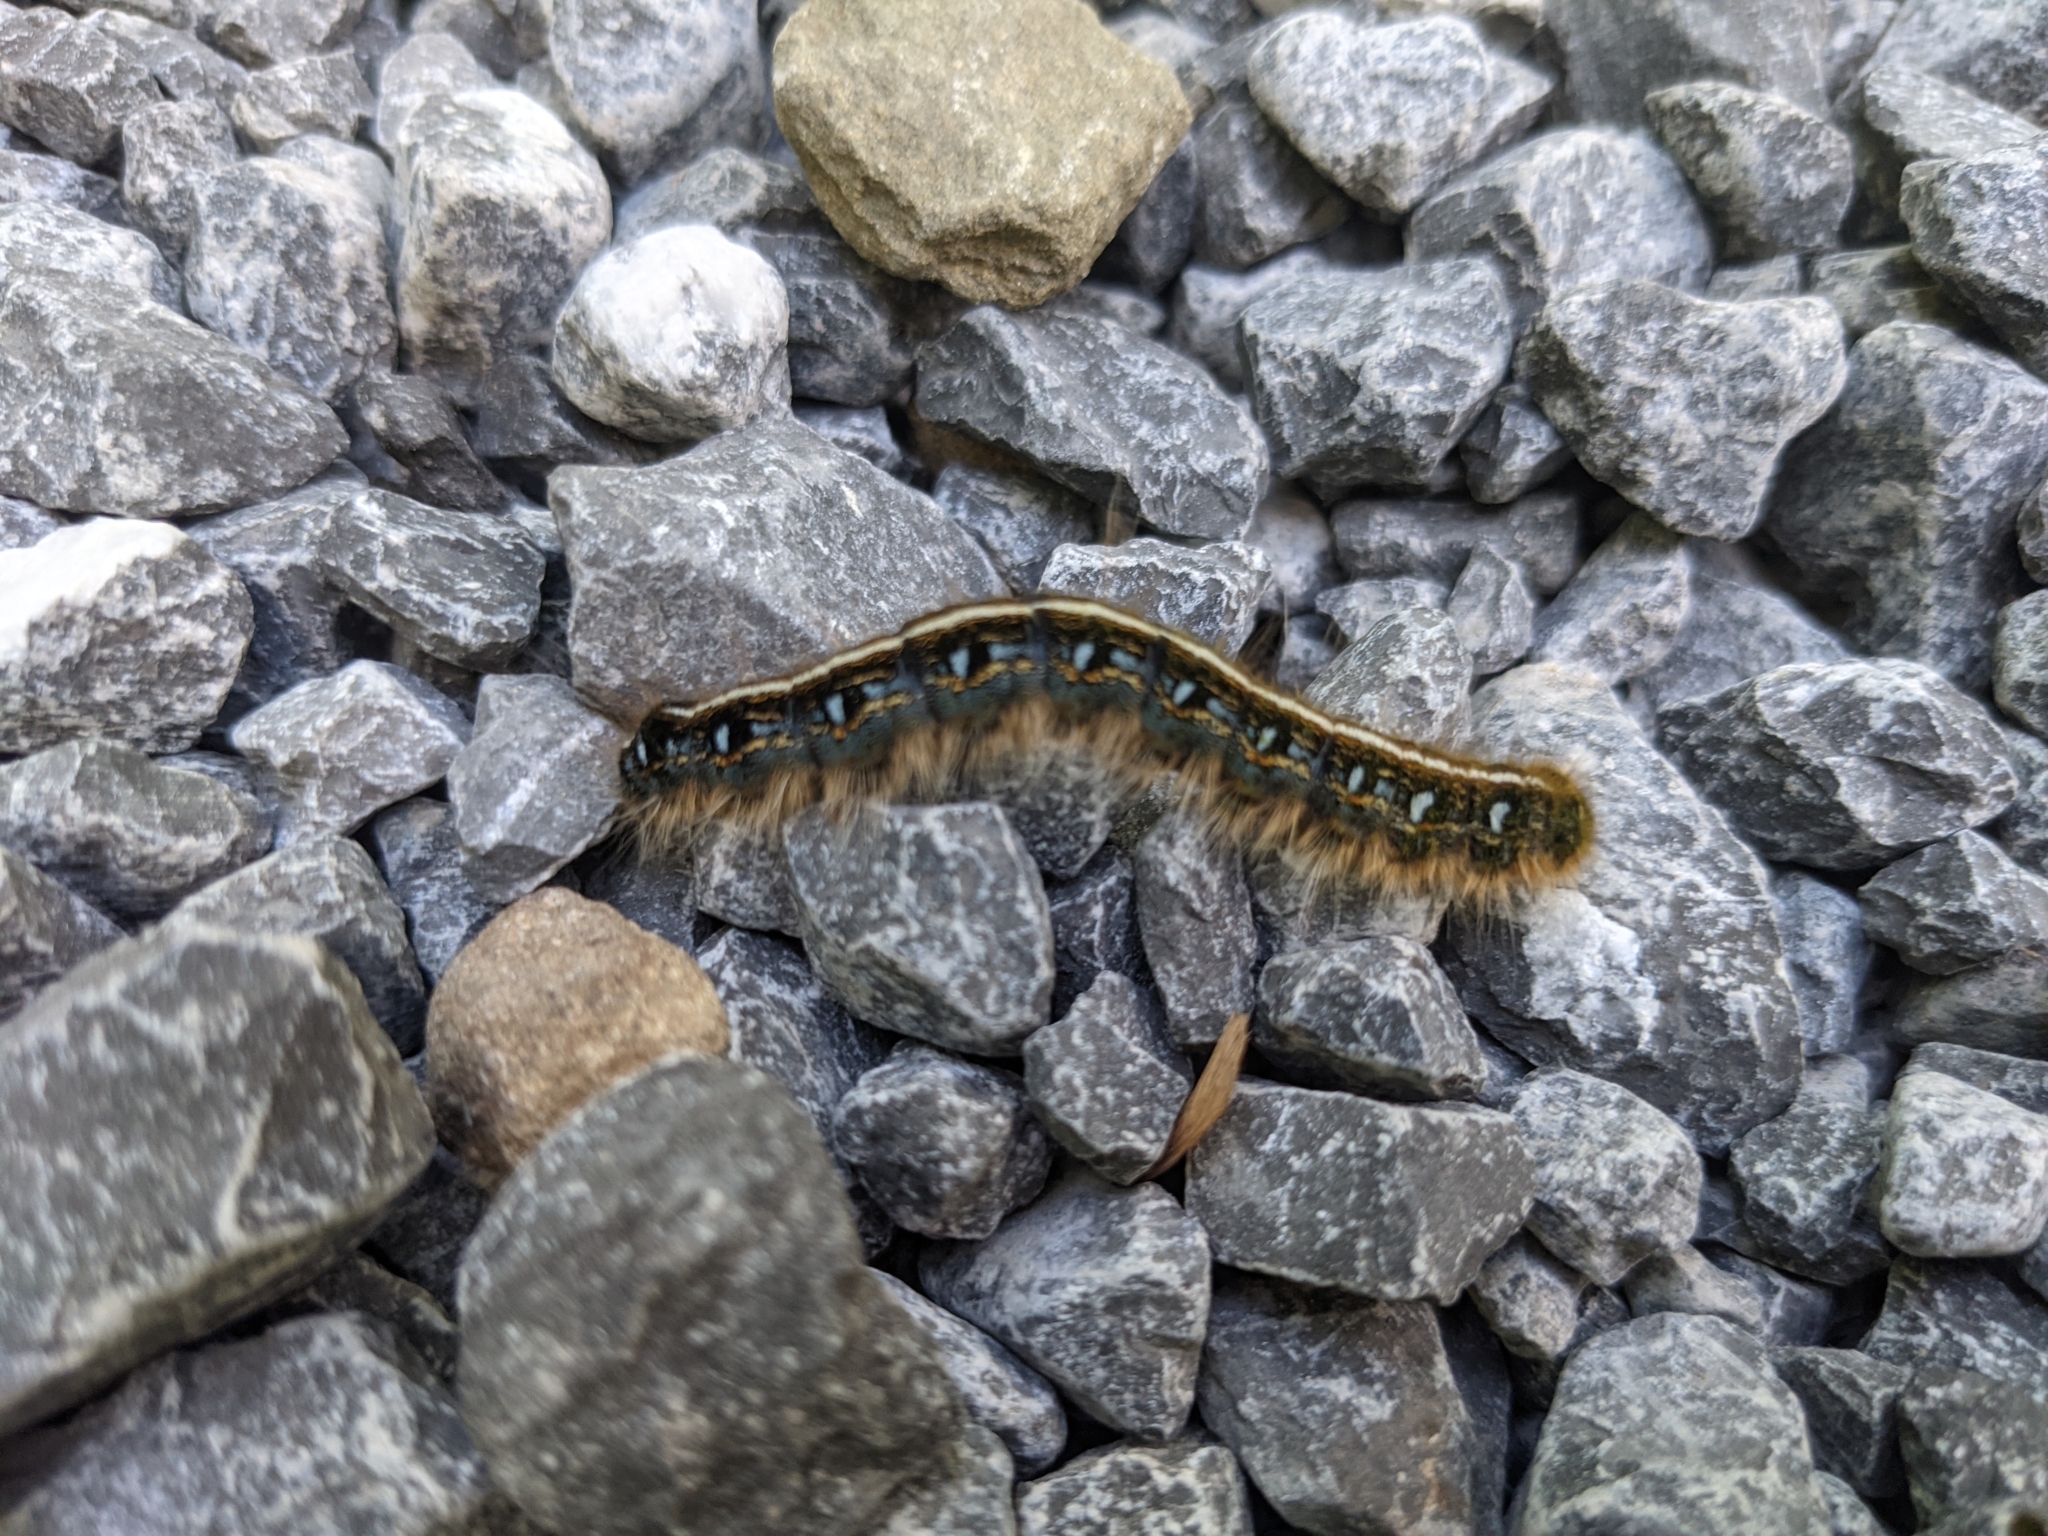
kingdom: Animalia
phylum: Arthropoda
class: Insecta
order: Lepidoptera
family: Lasiocampidae
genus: Malacosoma
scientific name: Malacosoma americana
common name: Eastern tent caterpillar moth
